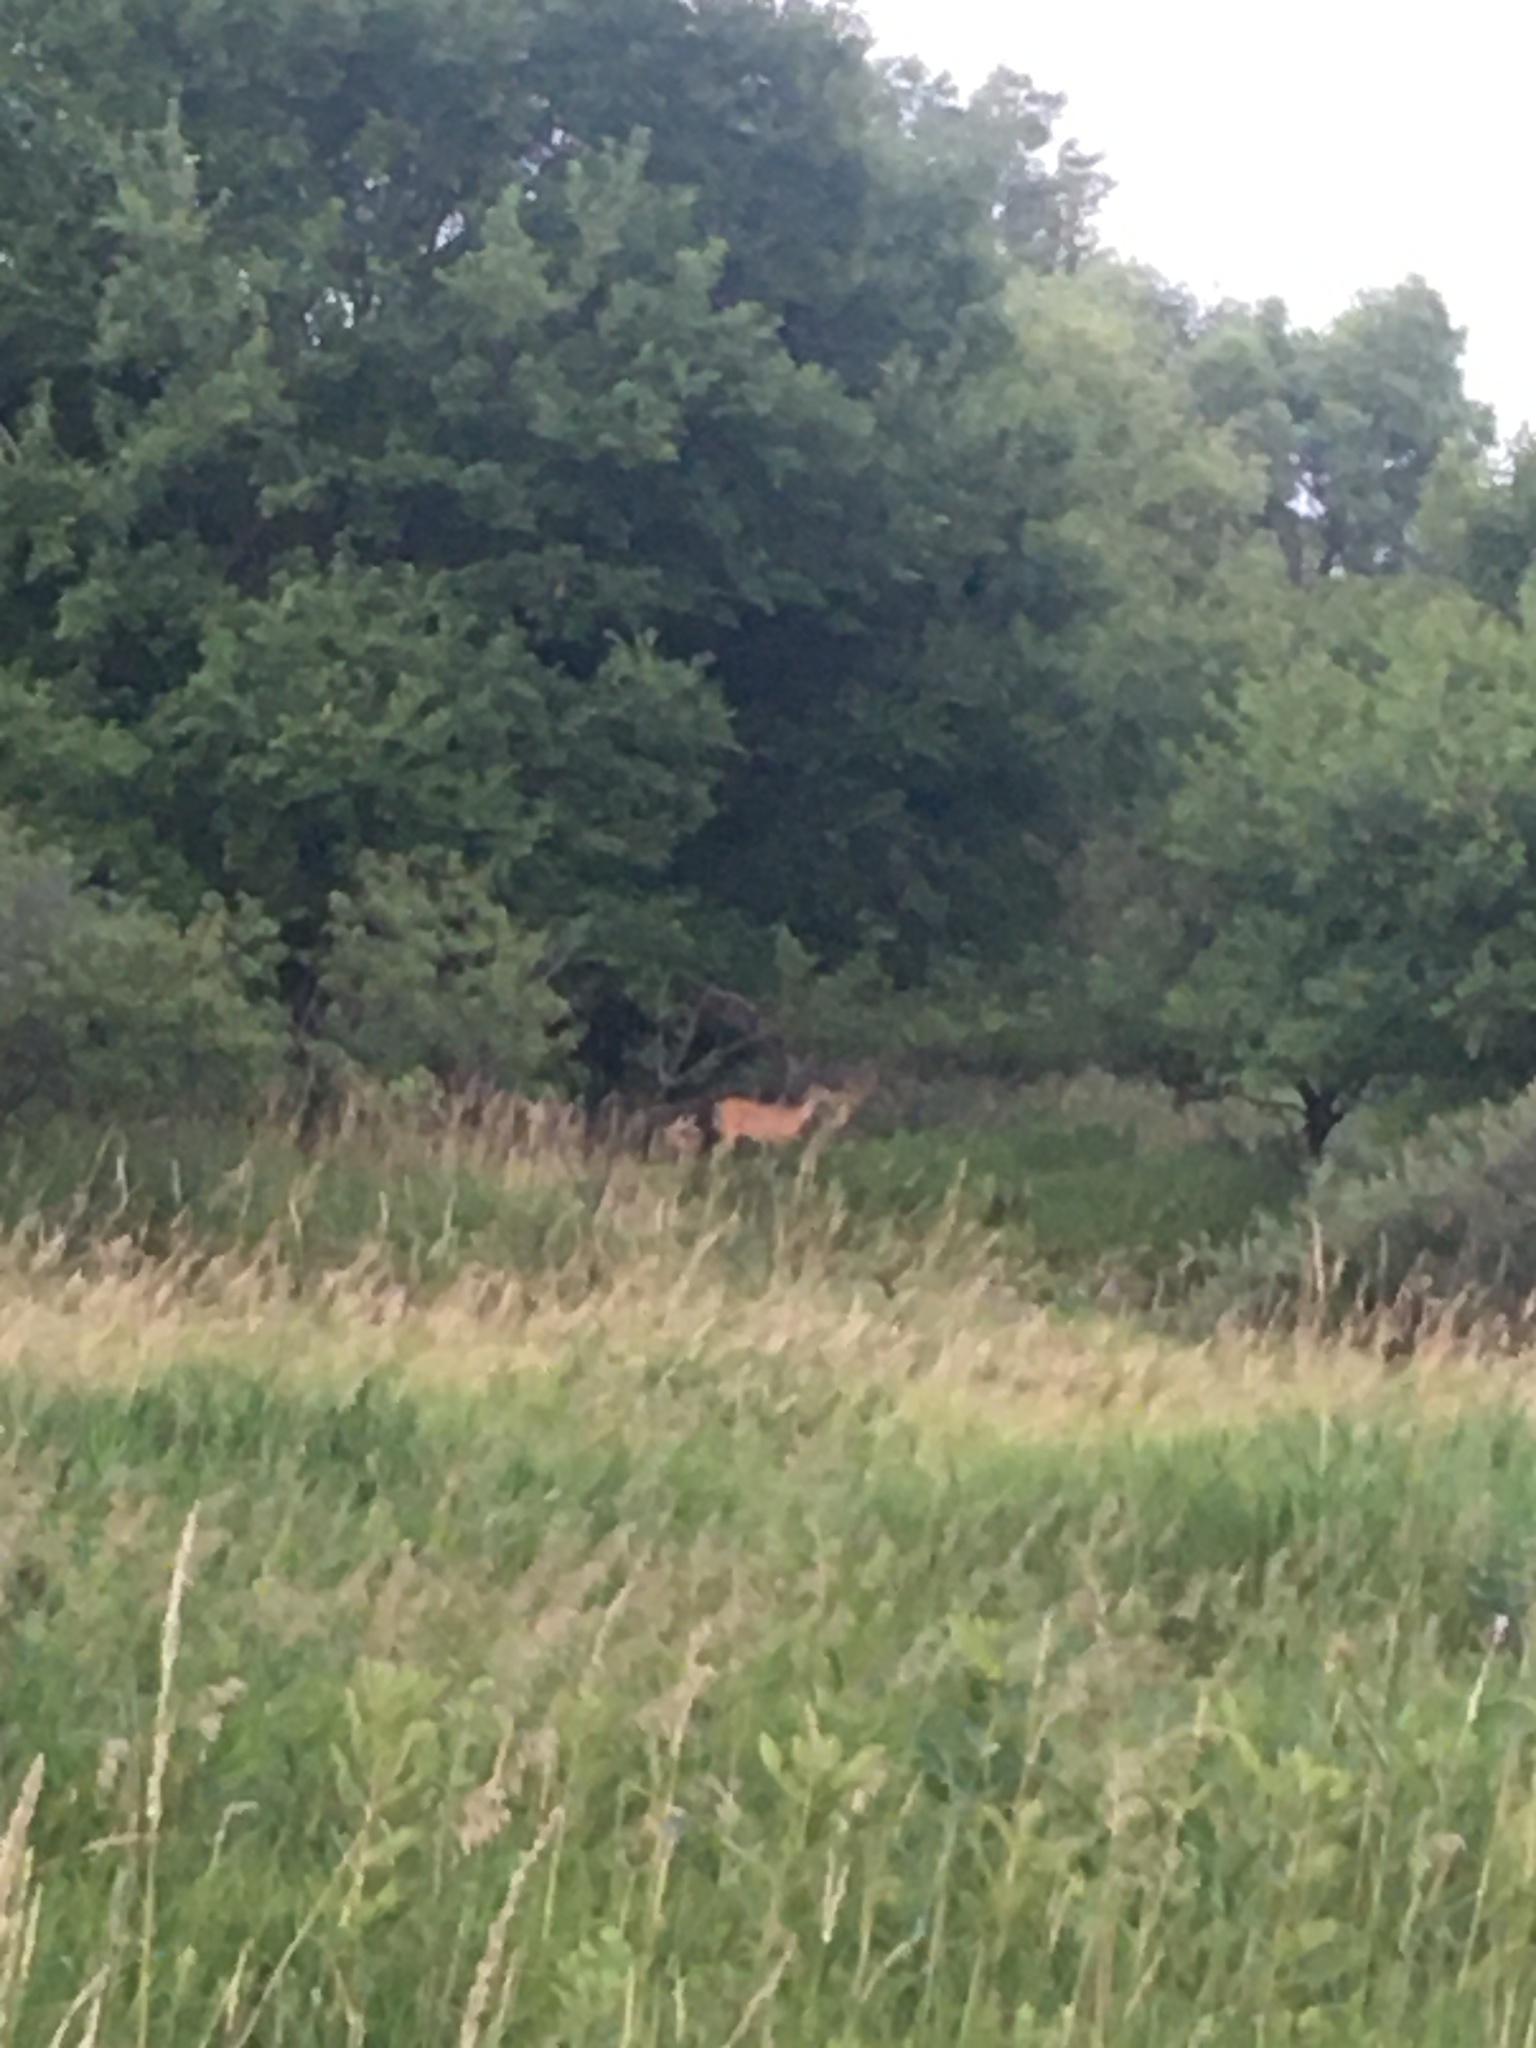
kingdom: Animalia
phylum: Chordata
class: Mammalia
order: Artiodactyla
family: Cervidae
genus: Odocoileus
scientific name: Odocoileus virginianus
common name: White-tailed deer
